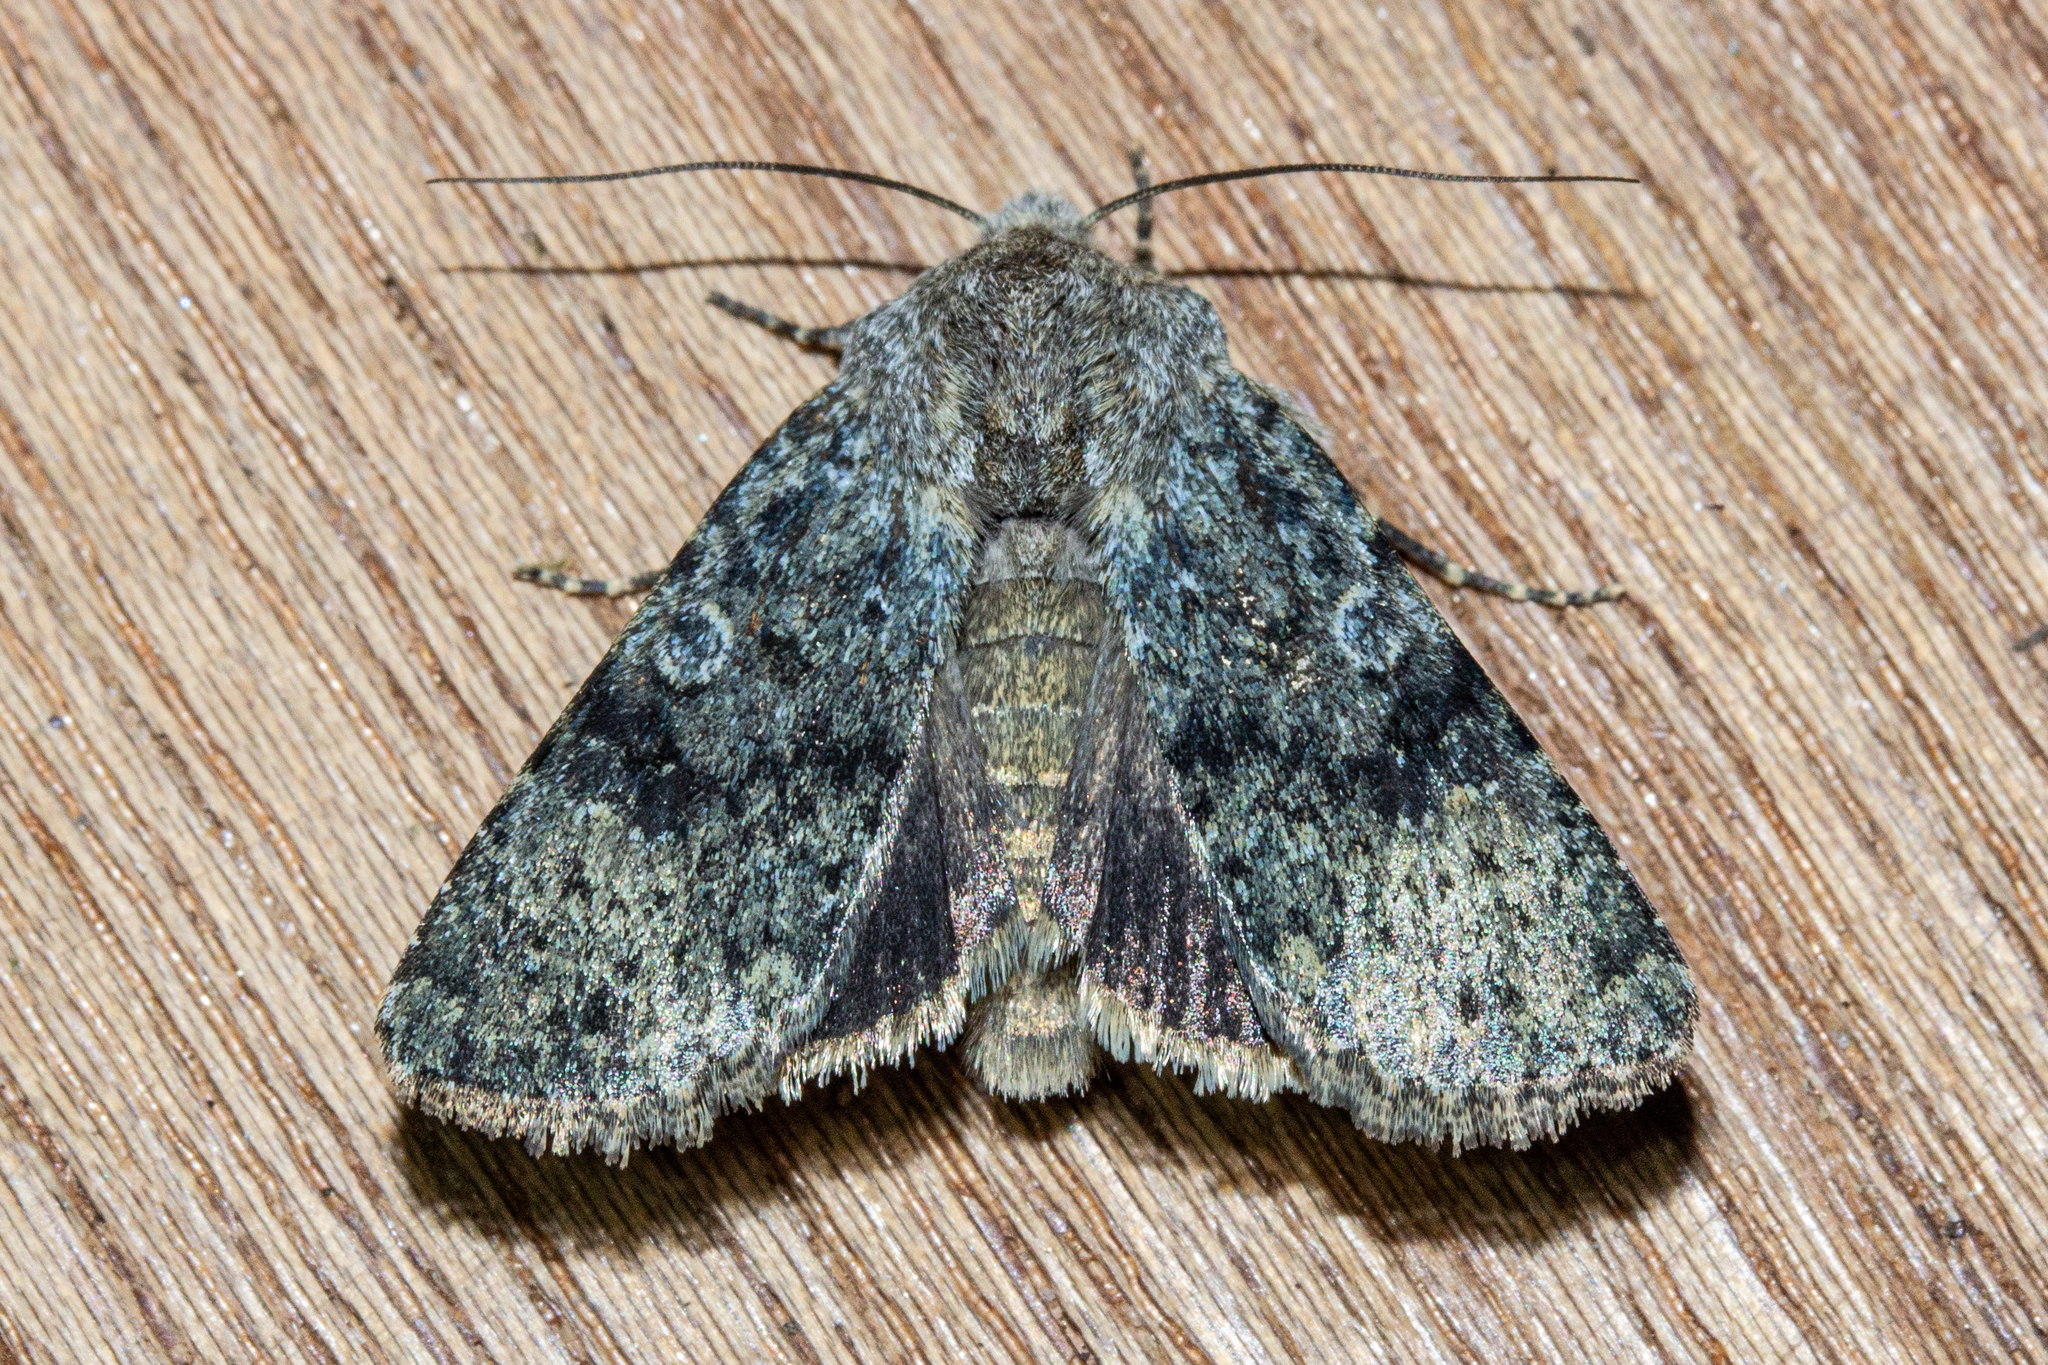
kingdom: Animalia
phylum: Arthropoda
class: Insecta
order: Lepidoptera
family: Noctuidae
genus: Ichneutica
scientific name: Ichneutica cuneata
